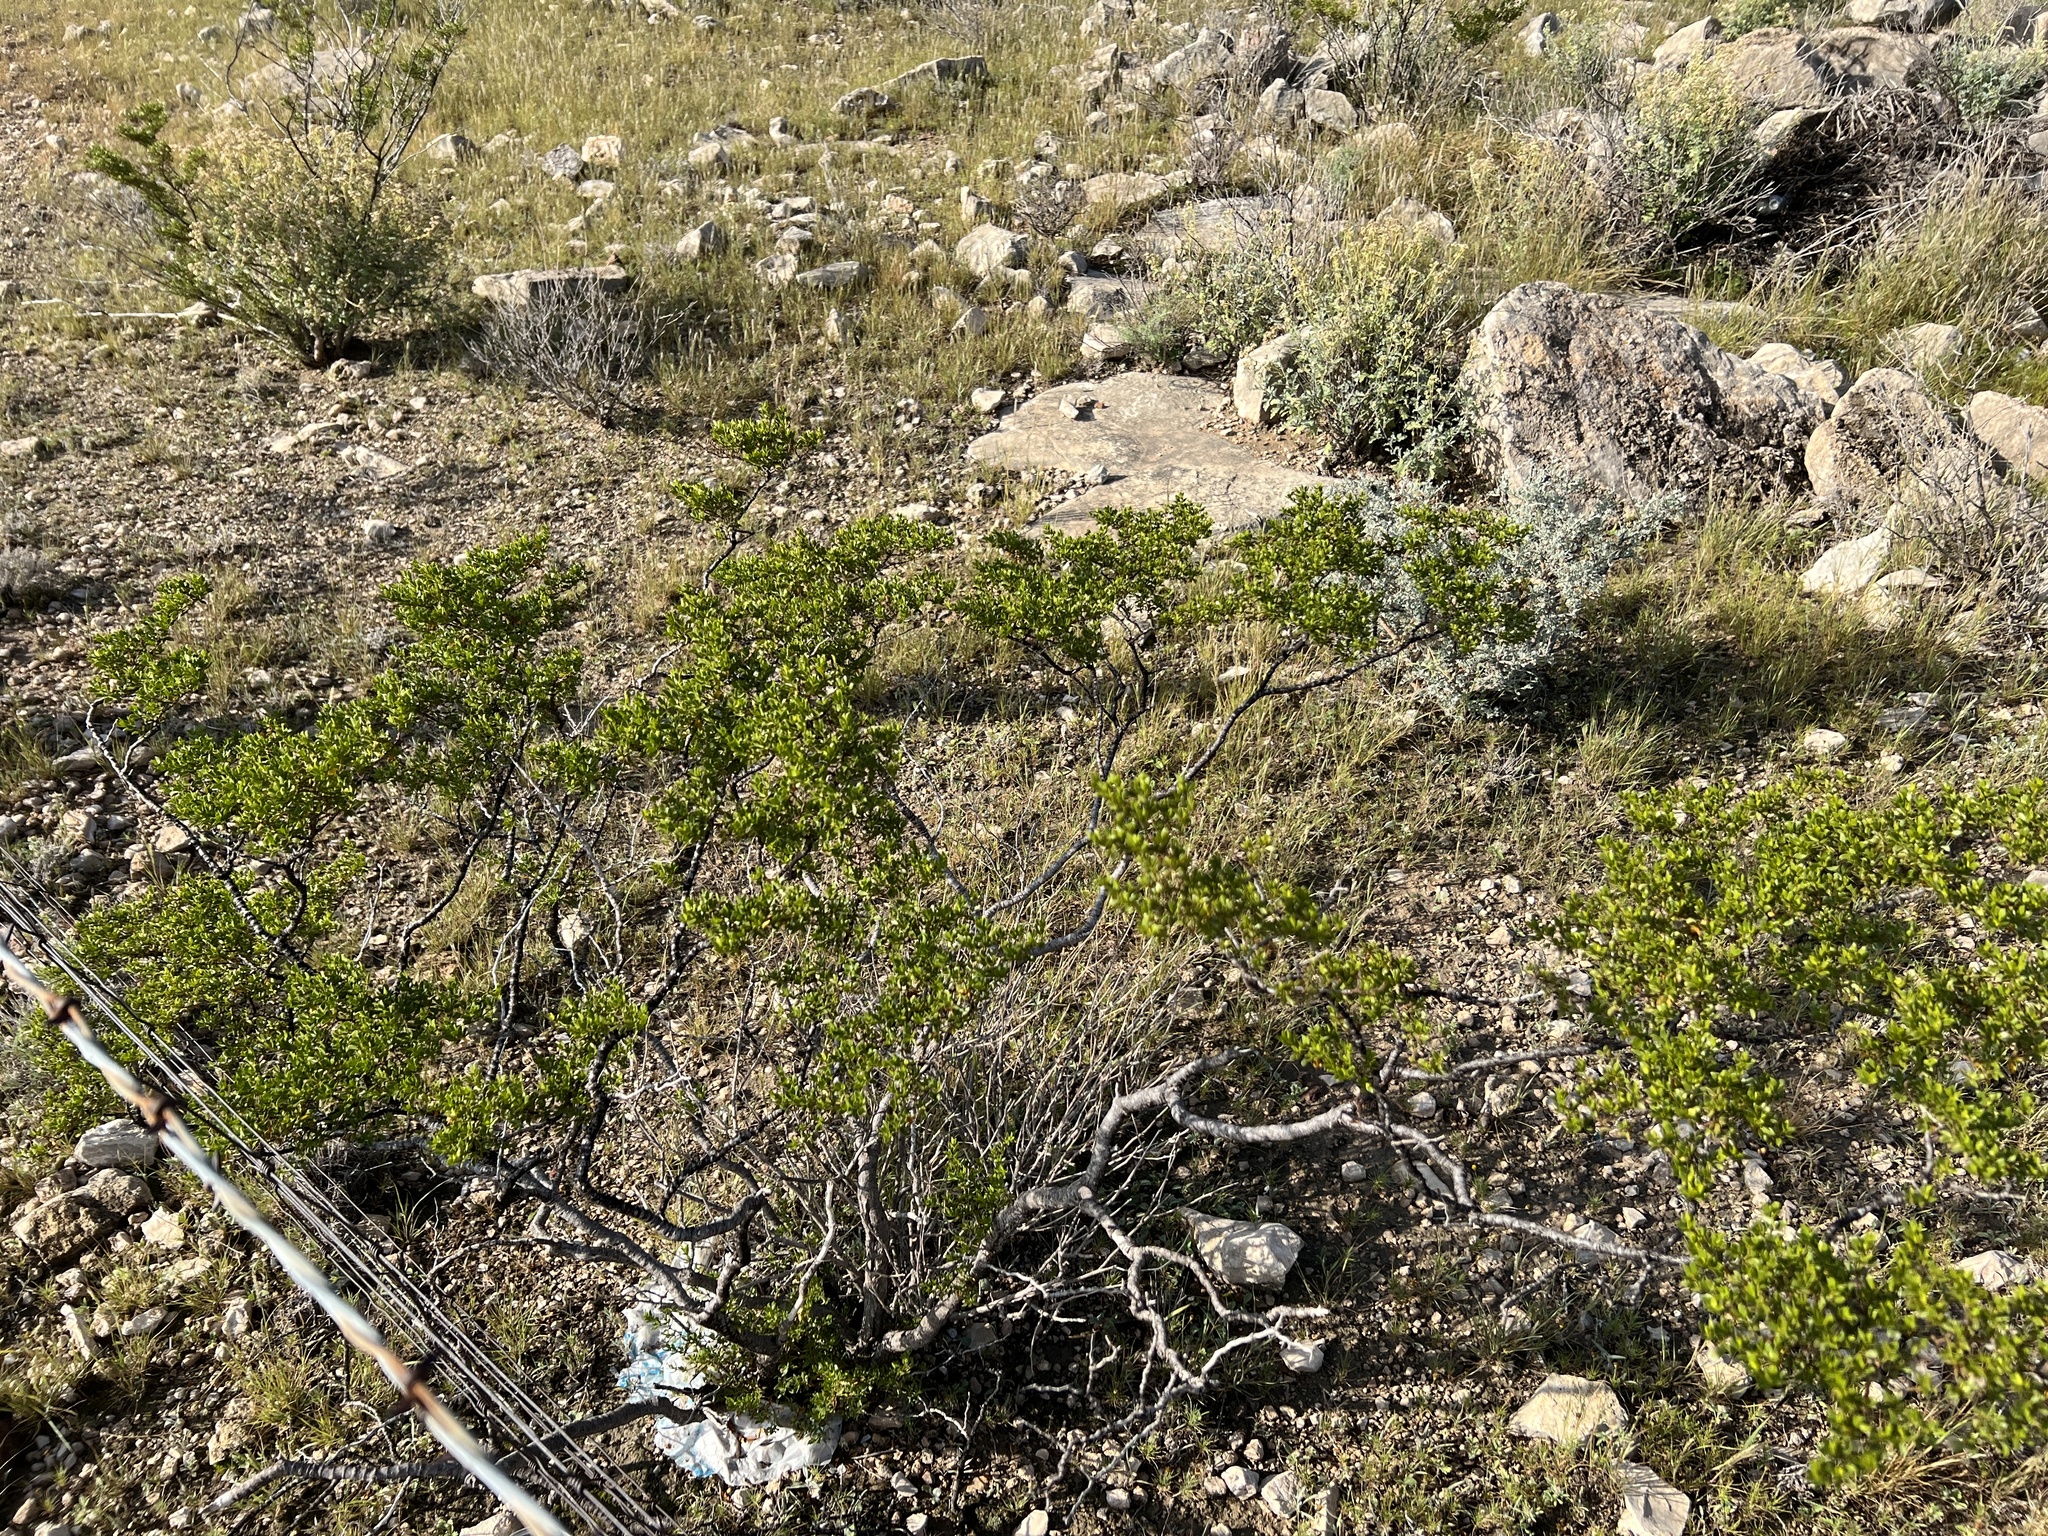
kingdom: Plantae
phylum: Tracheophyta
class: Magnoliopsida
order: Zygophyllales
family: Zygophyllaceae
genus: Larrea
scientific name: Larrea tridentata
